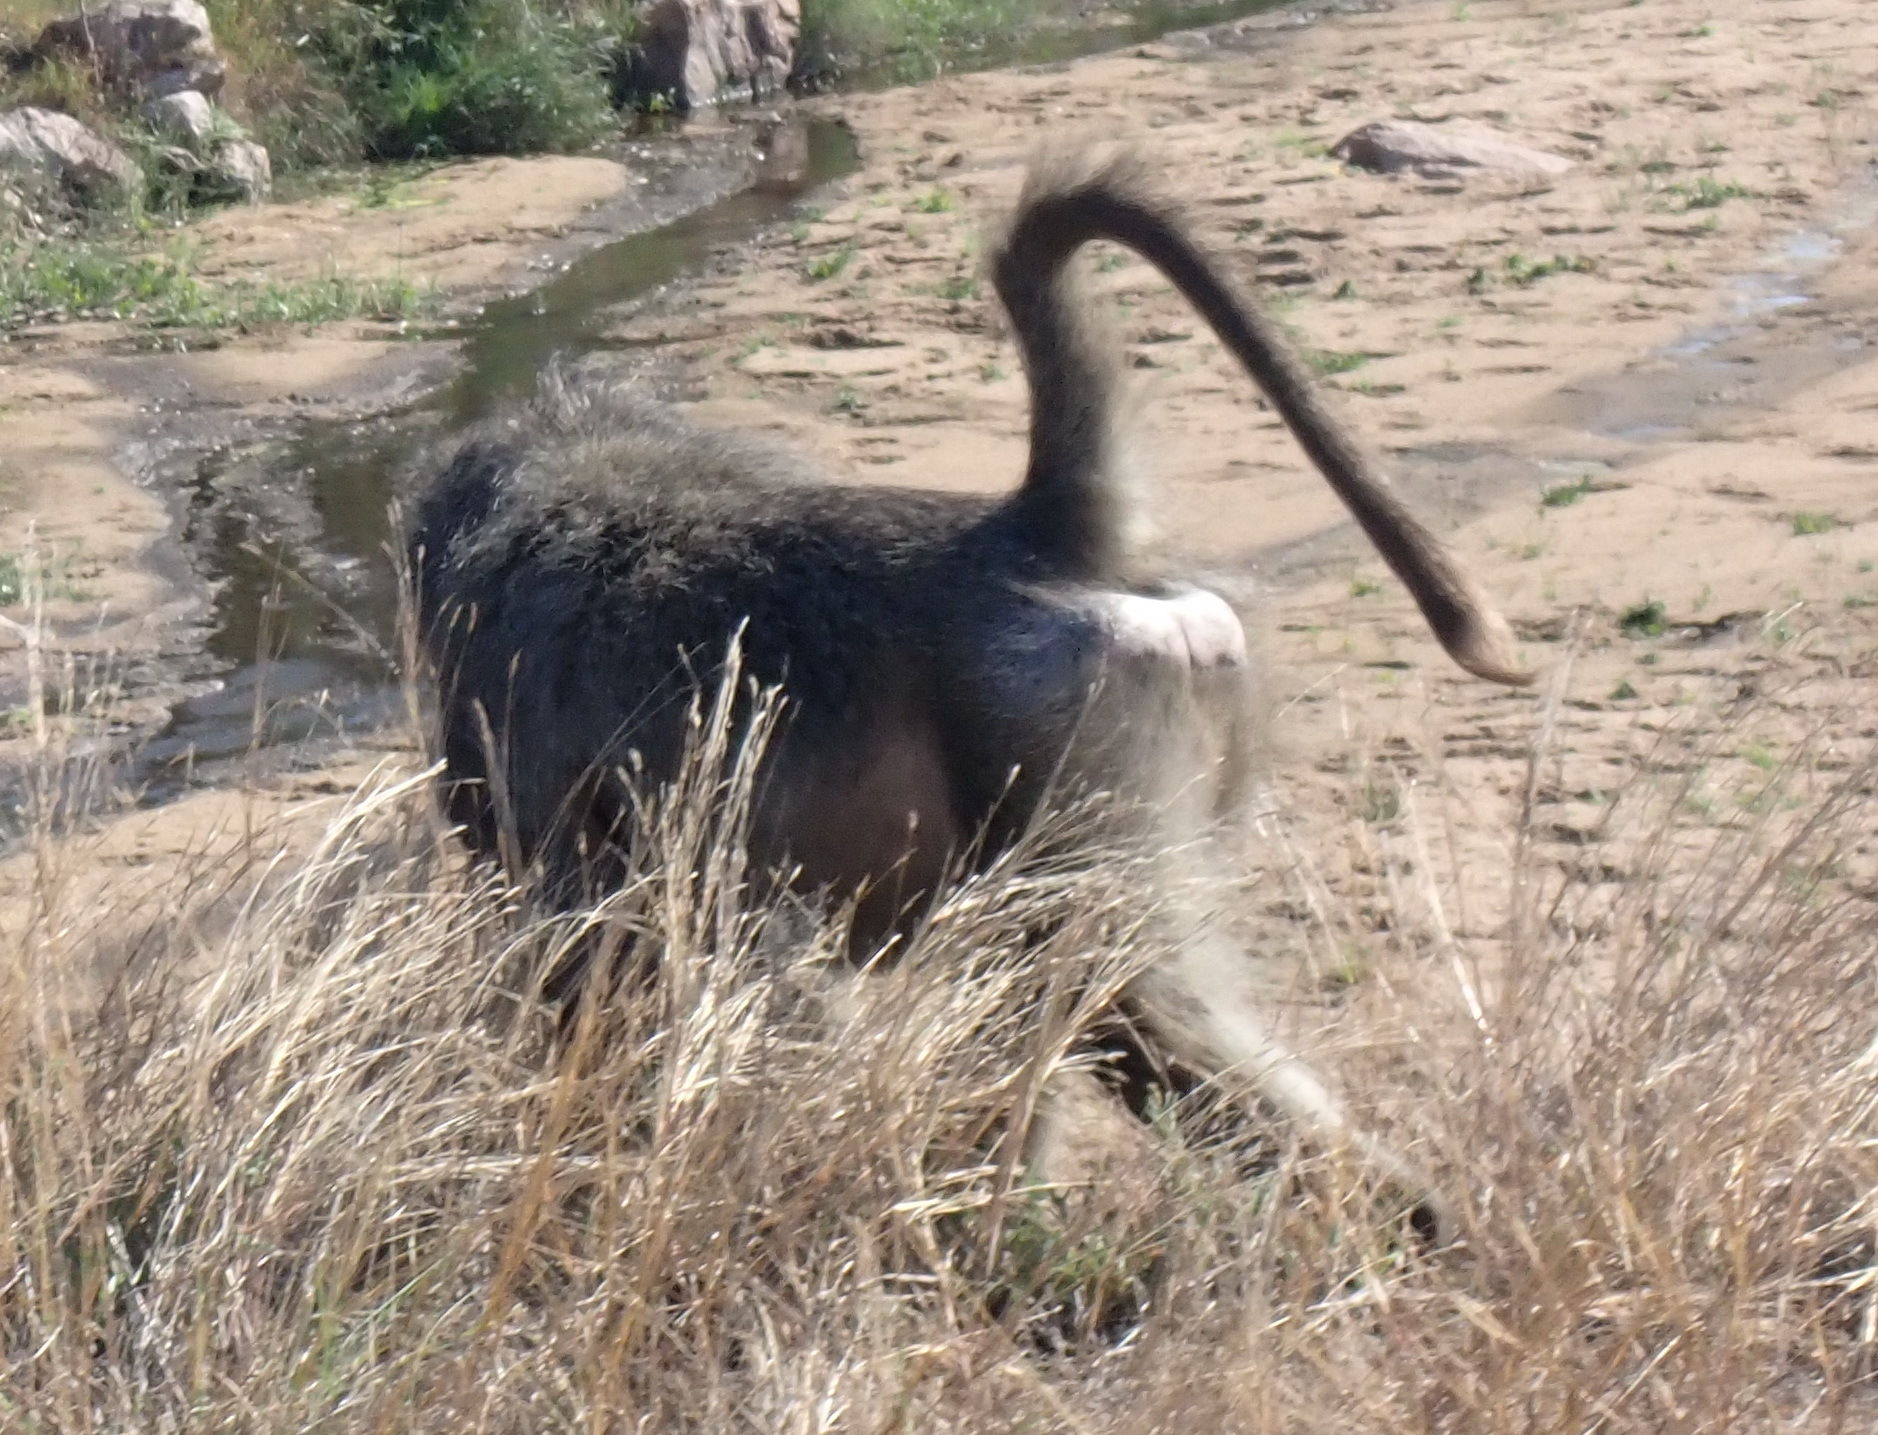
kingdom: Animalia
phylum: Chordata
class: Mammalia
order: Primates
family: Cercopithecidae
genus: Papio
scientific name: Papio ursinus
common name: Chacma baboon
